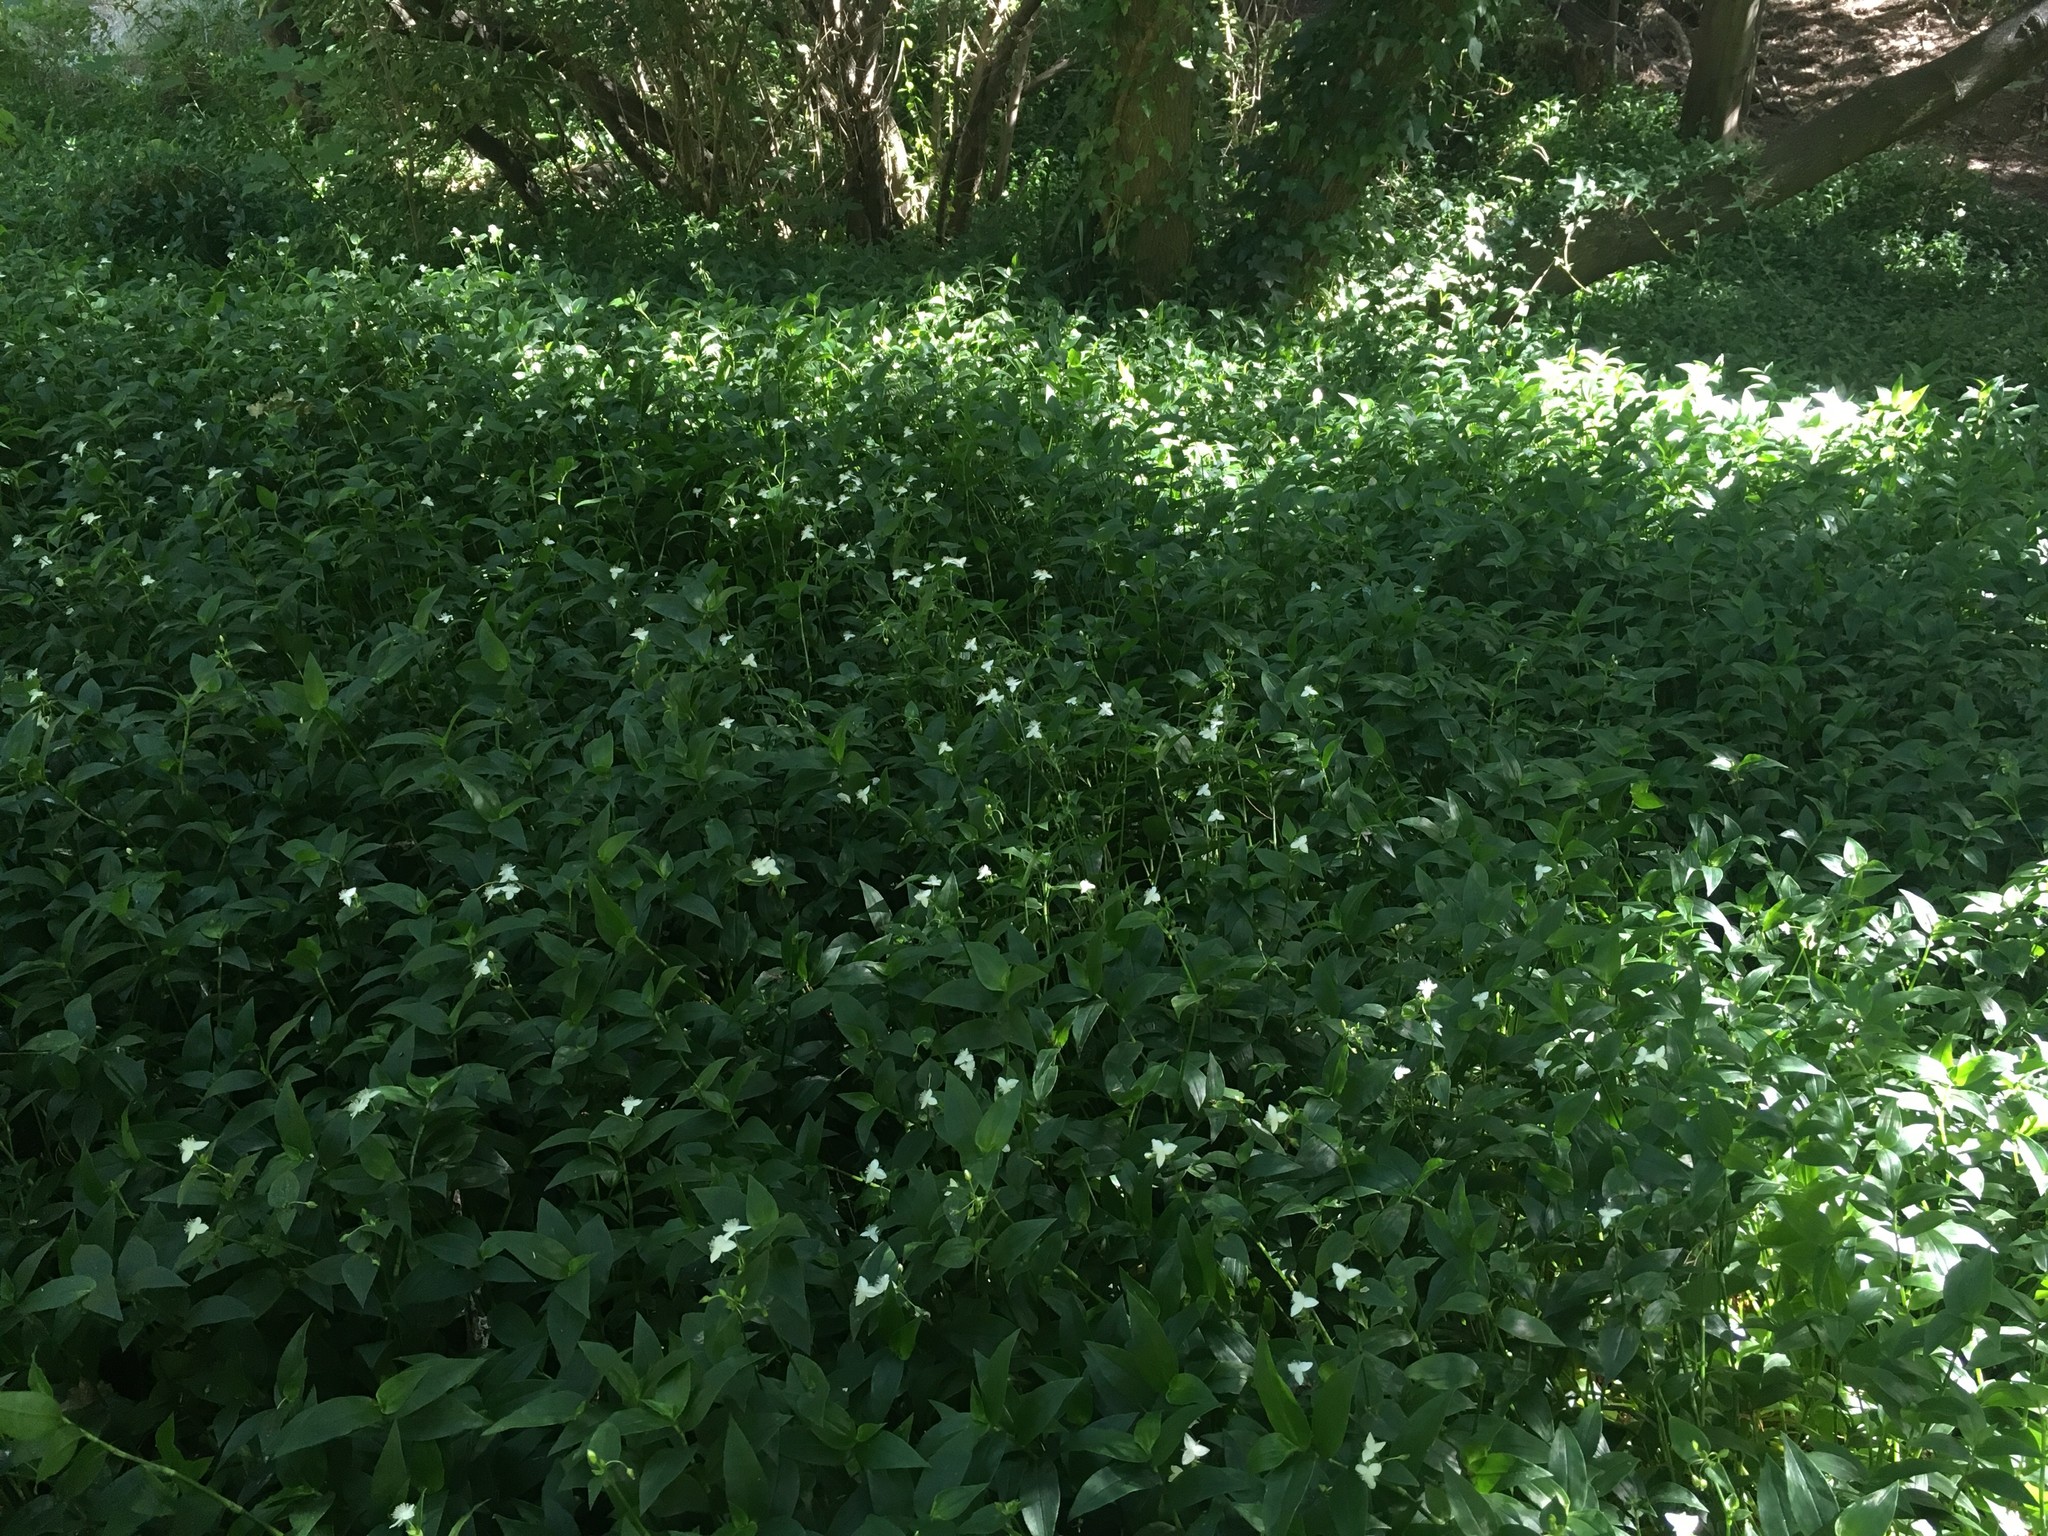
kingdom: Plantae
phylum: Tracheophyta
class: Liliopsida
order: Commelinales
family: Commelinaceae
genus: Tradescantia
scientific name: Tradescantia fluminensis
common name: Wandering-jew
